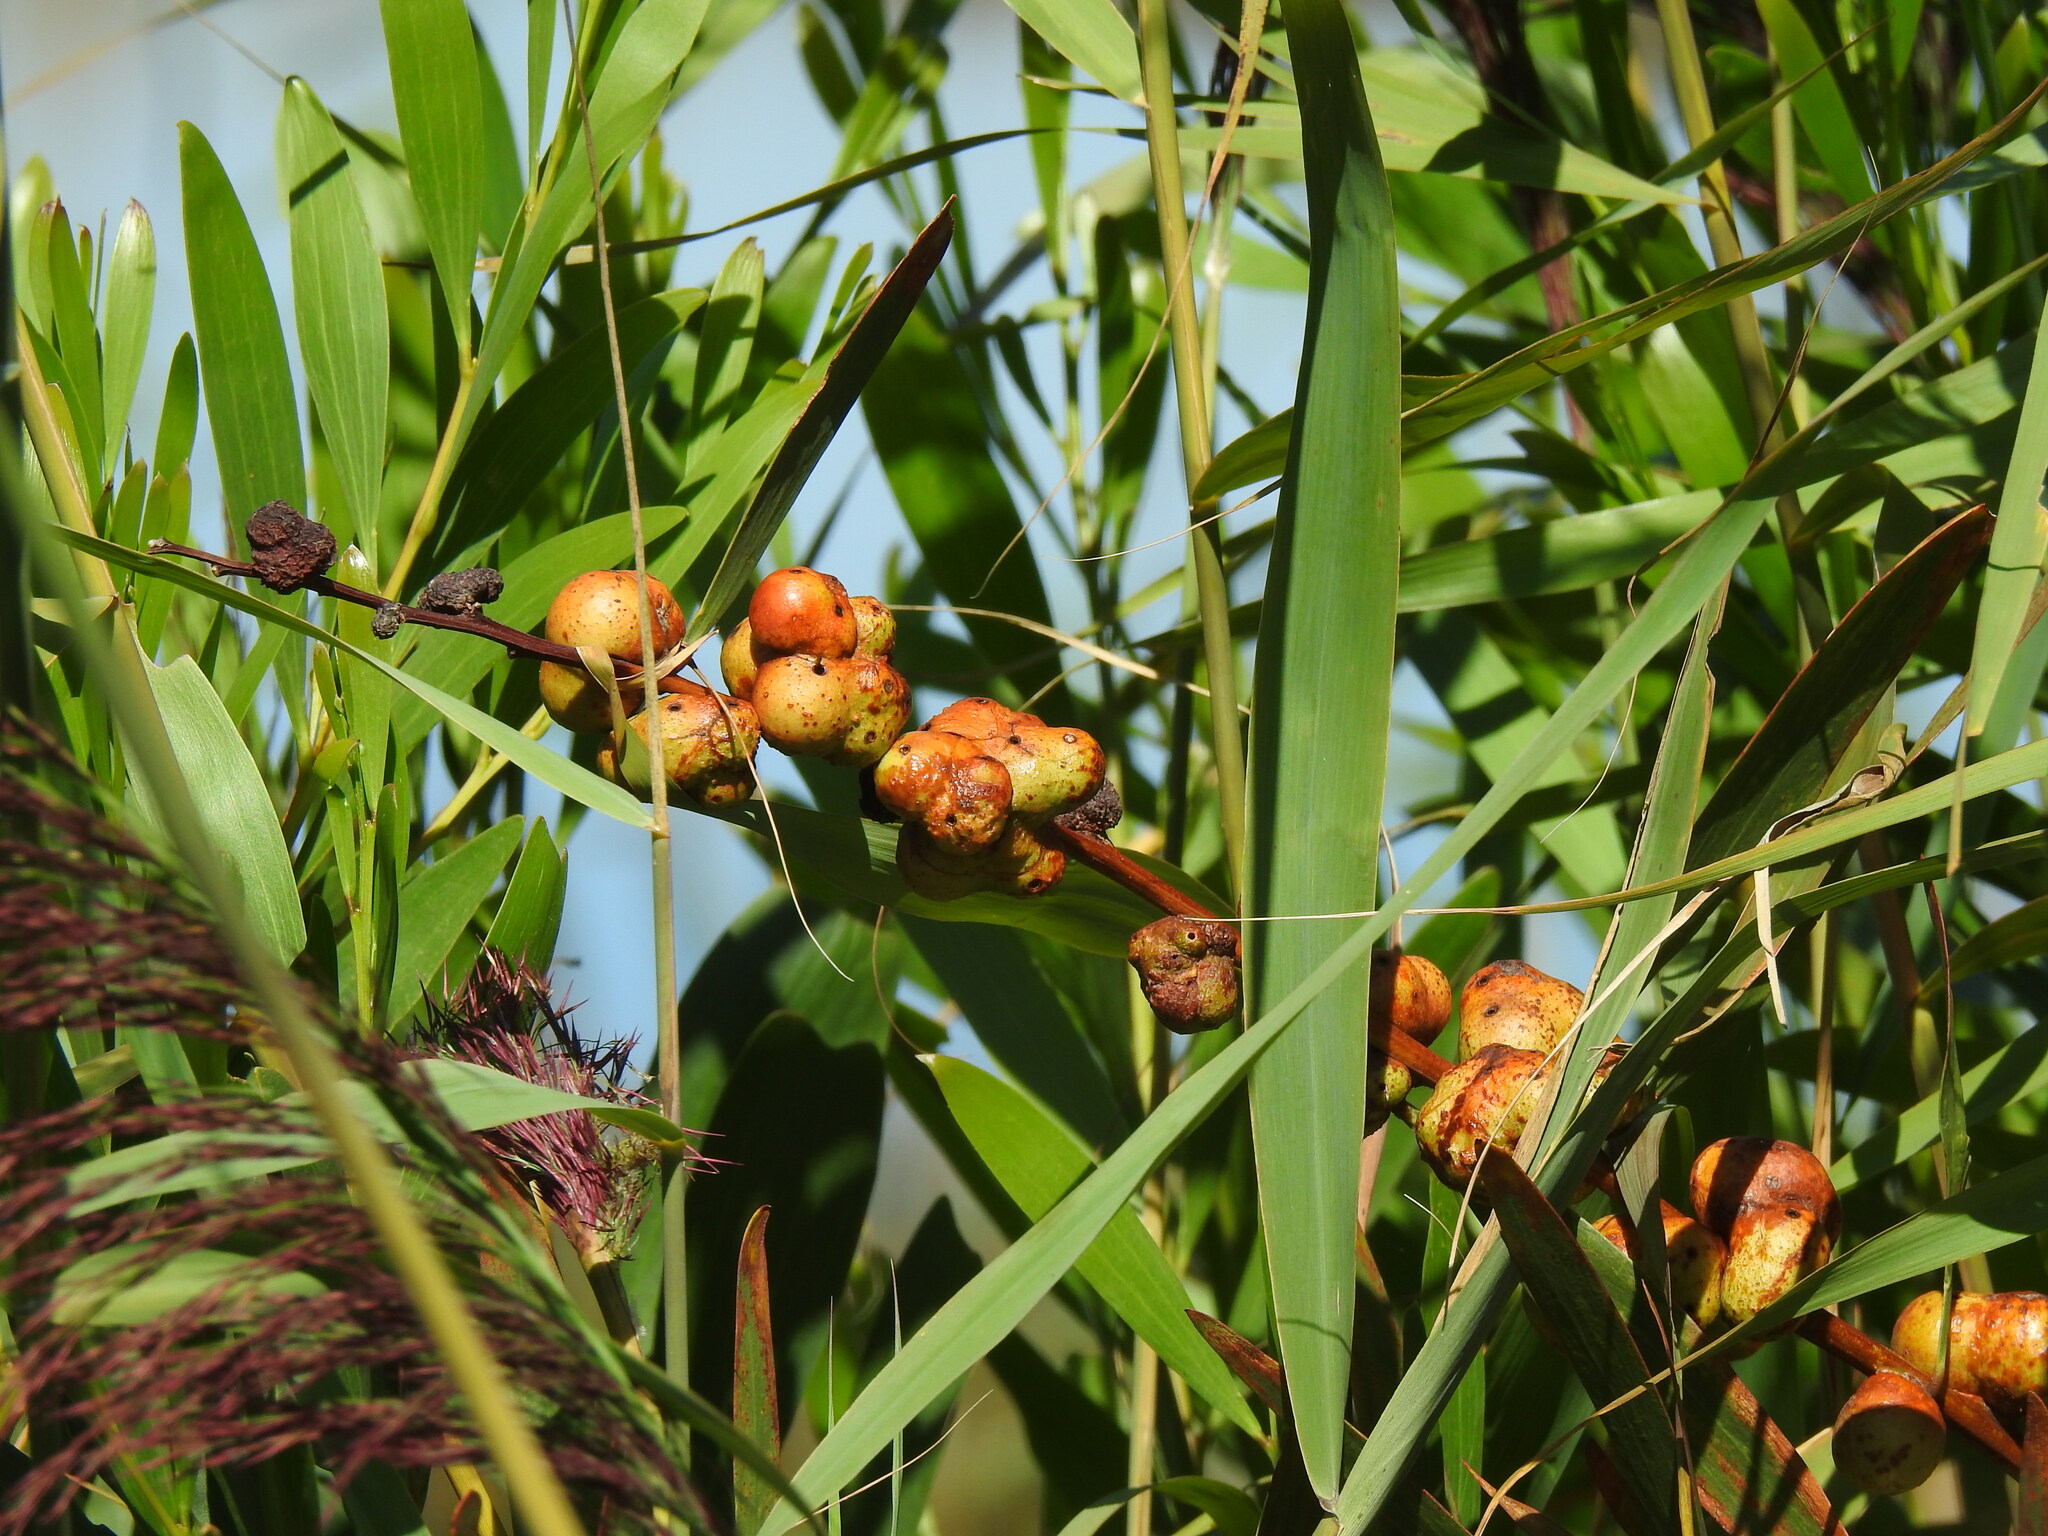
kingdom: Animalia
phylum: Arthropoda
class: Insecta
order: Hymenoptera
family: Pteromalidae
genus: Trichilogaster
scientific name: Trichilogaster acaciaelongifoliae
